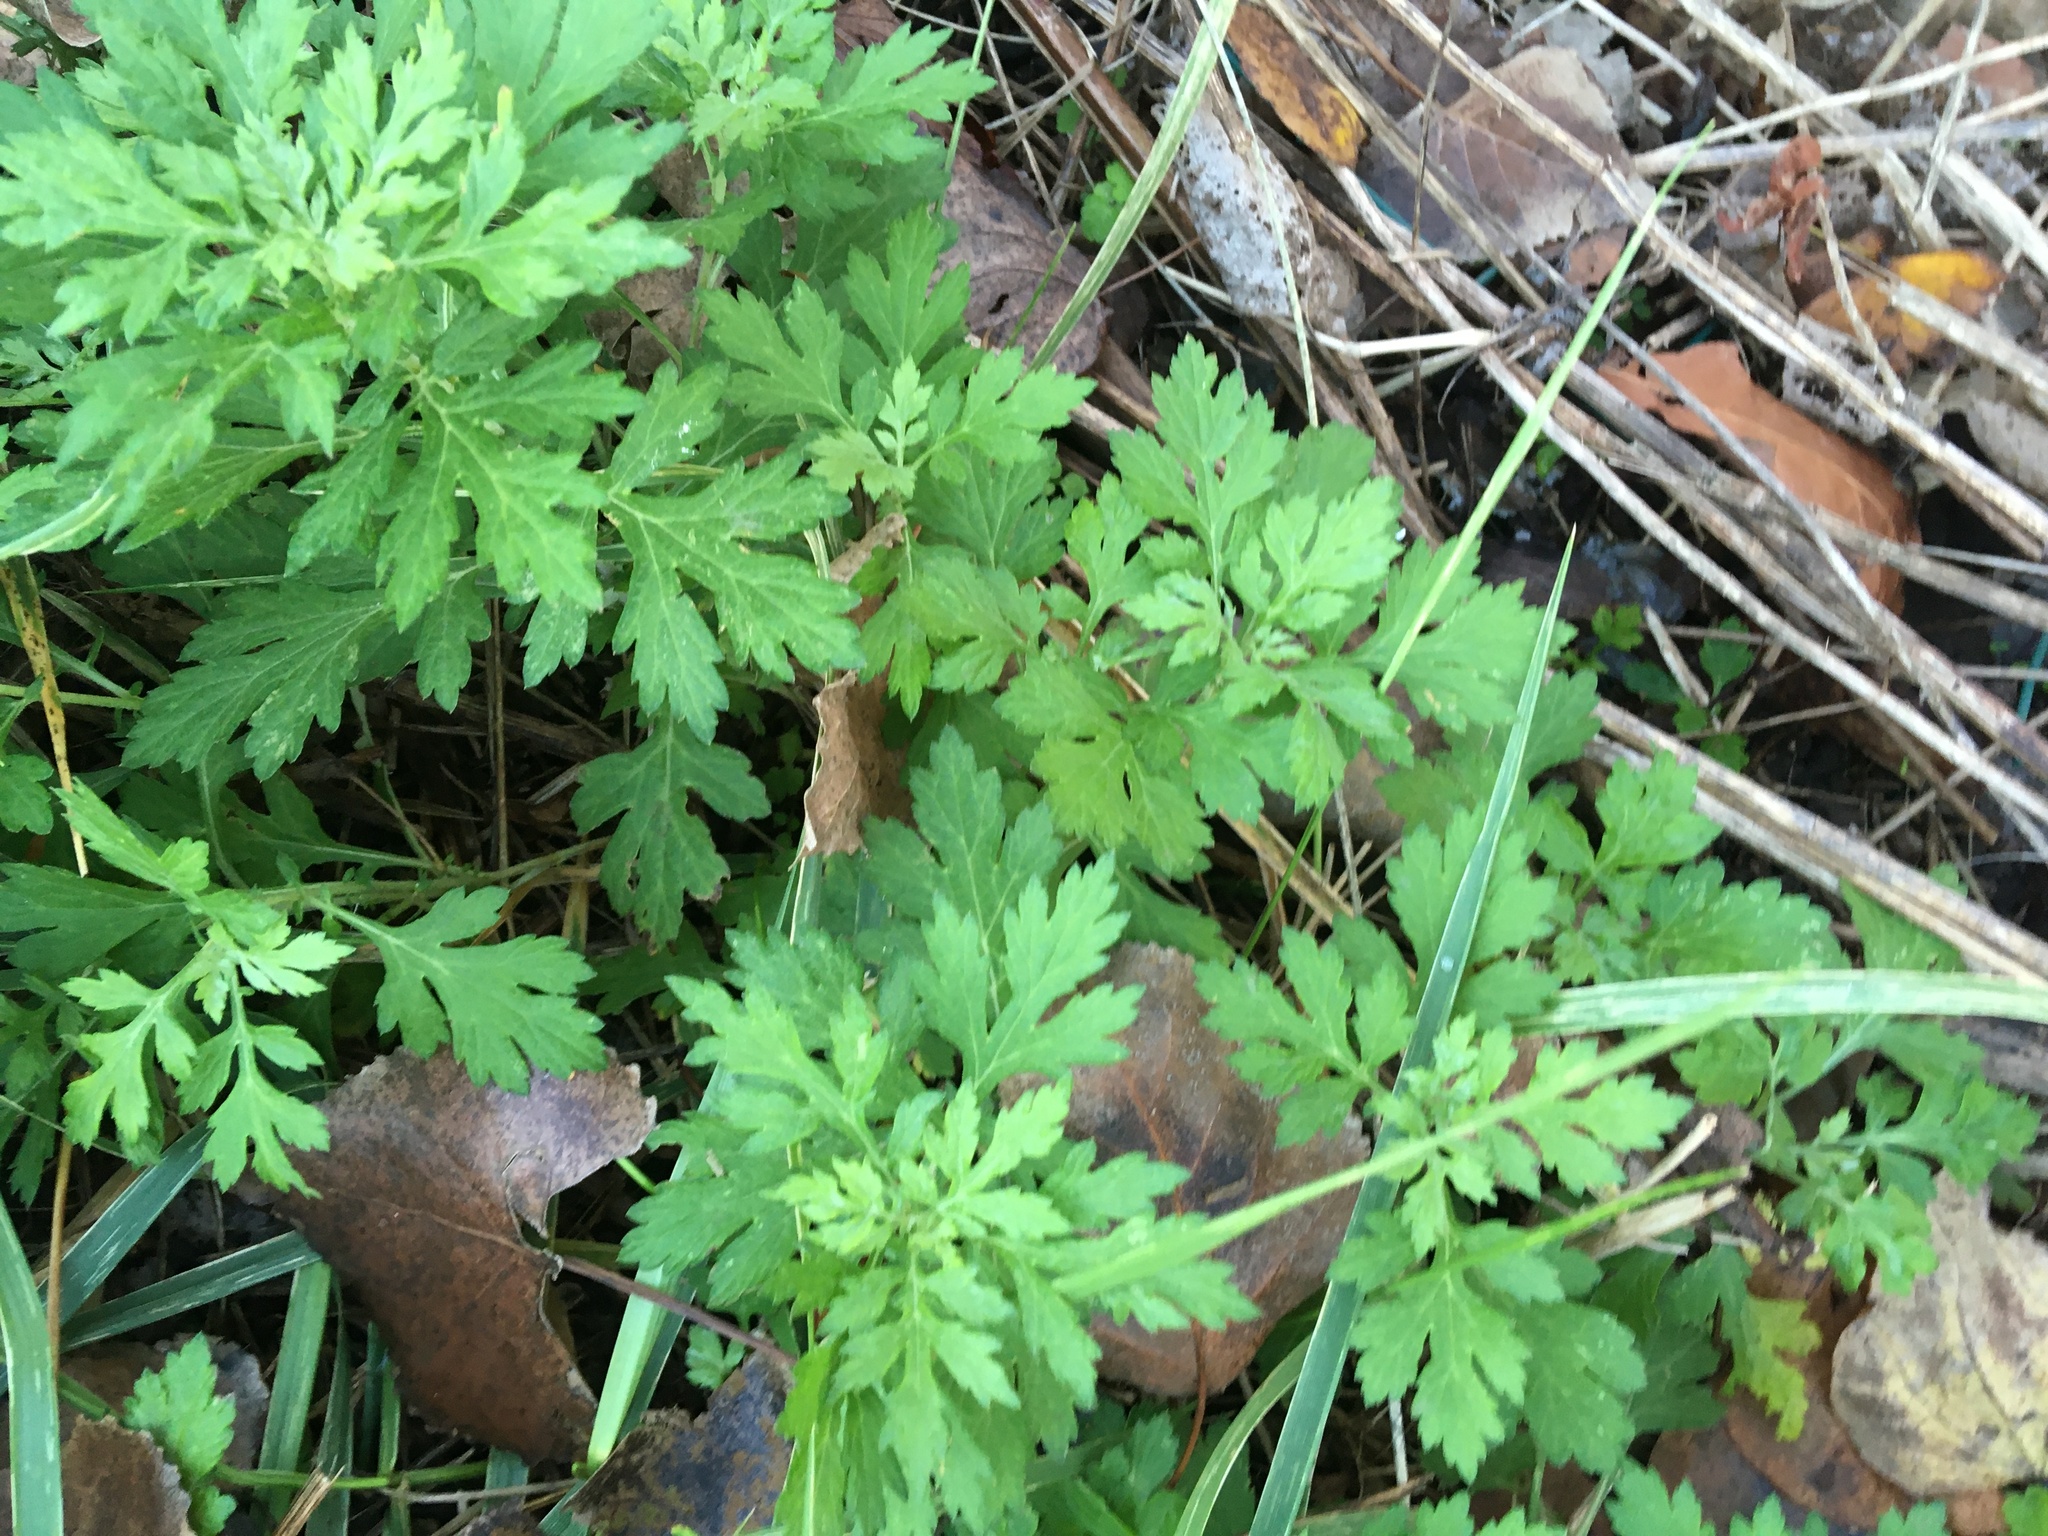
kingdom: Plantae
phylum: Tracheophyta
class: Magnoliopsida
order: Asterales
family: Asteraceae
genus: Artemisia
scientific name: Artemisia vulgaris
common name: Mugwort
